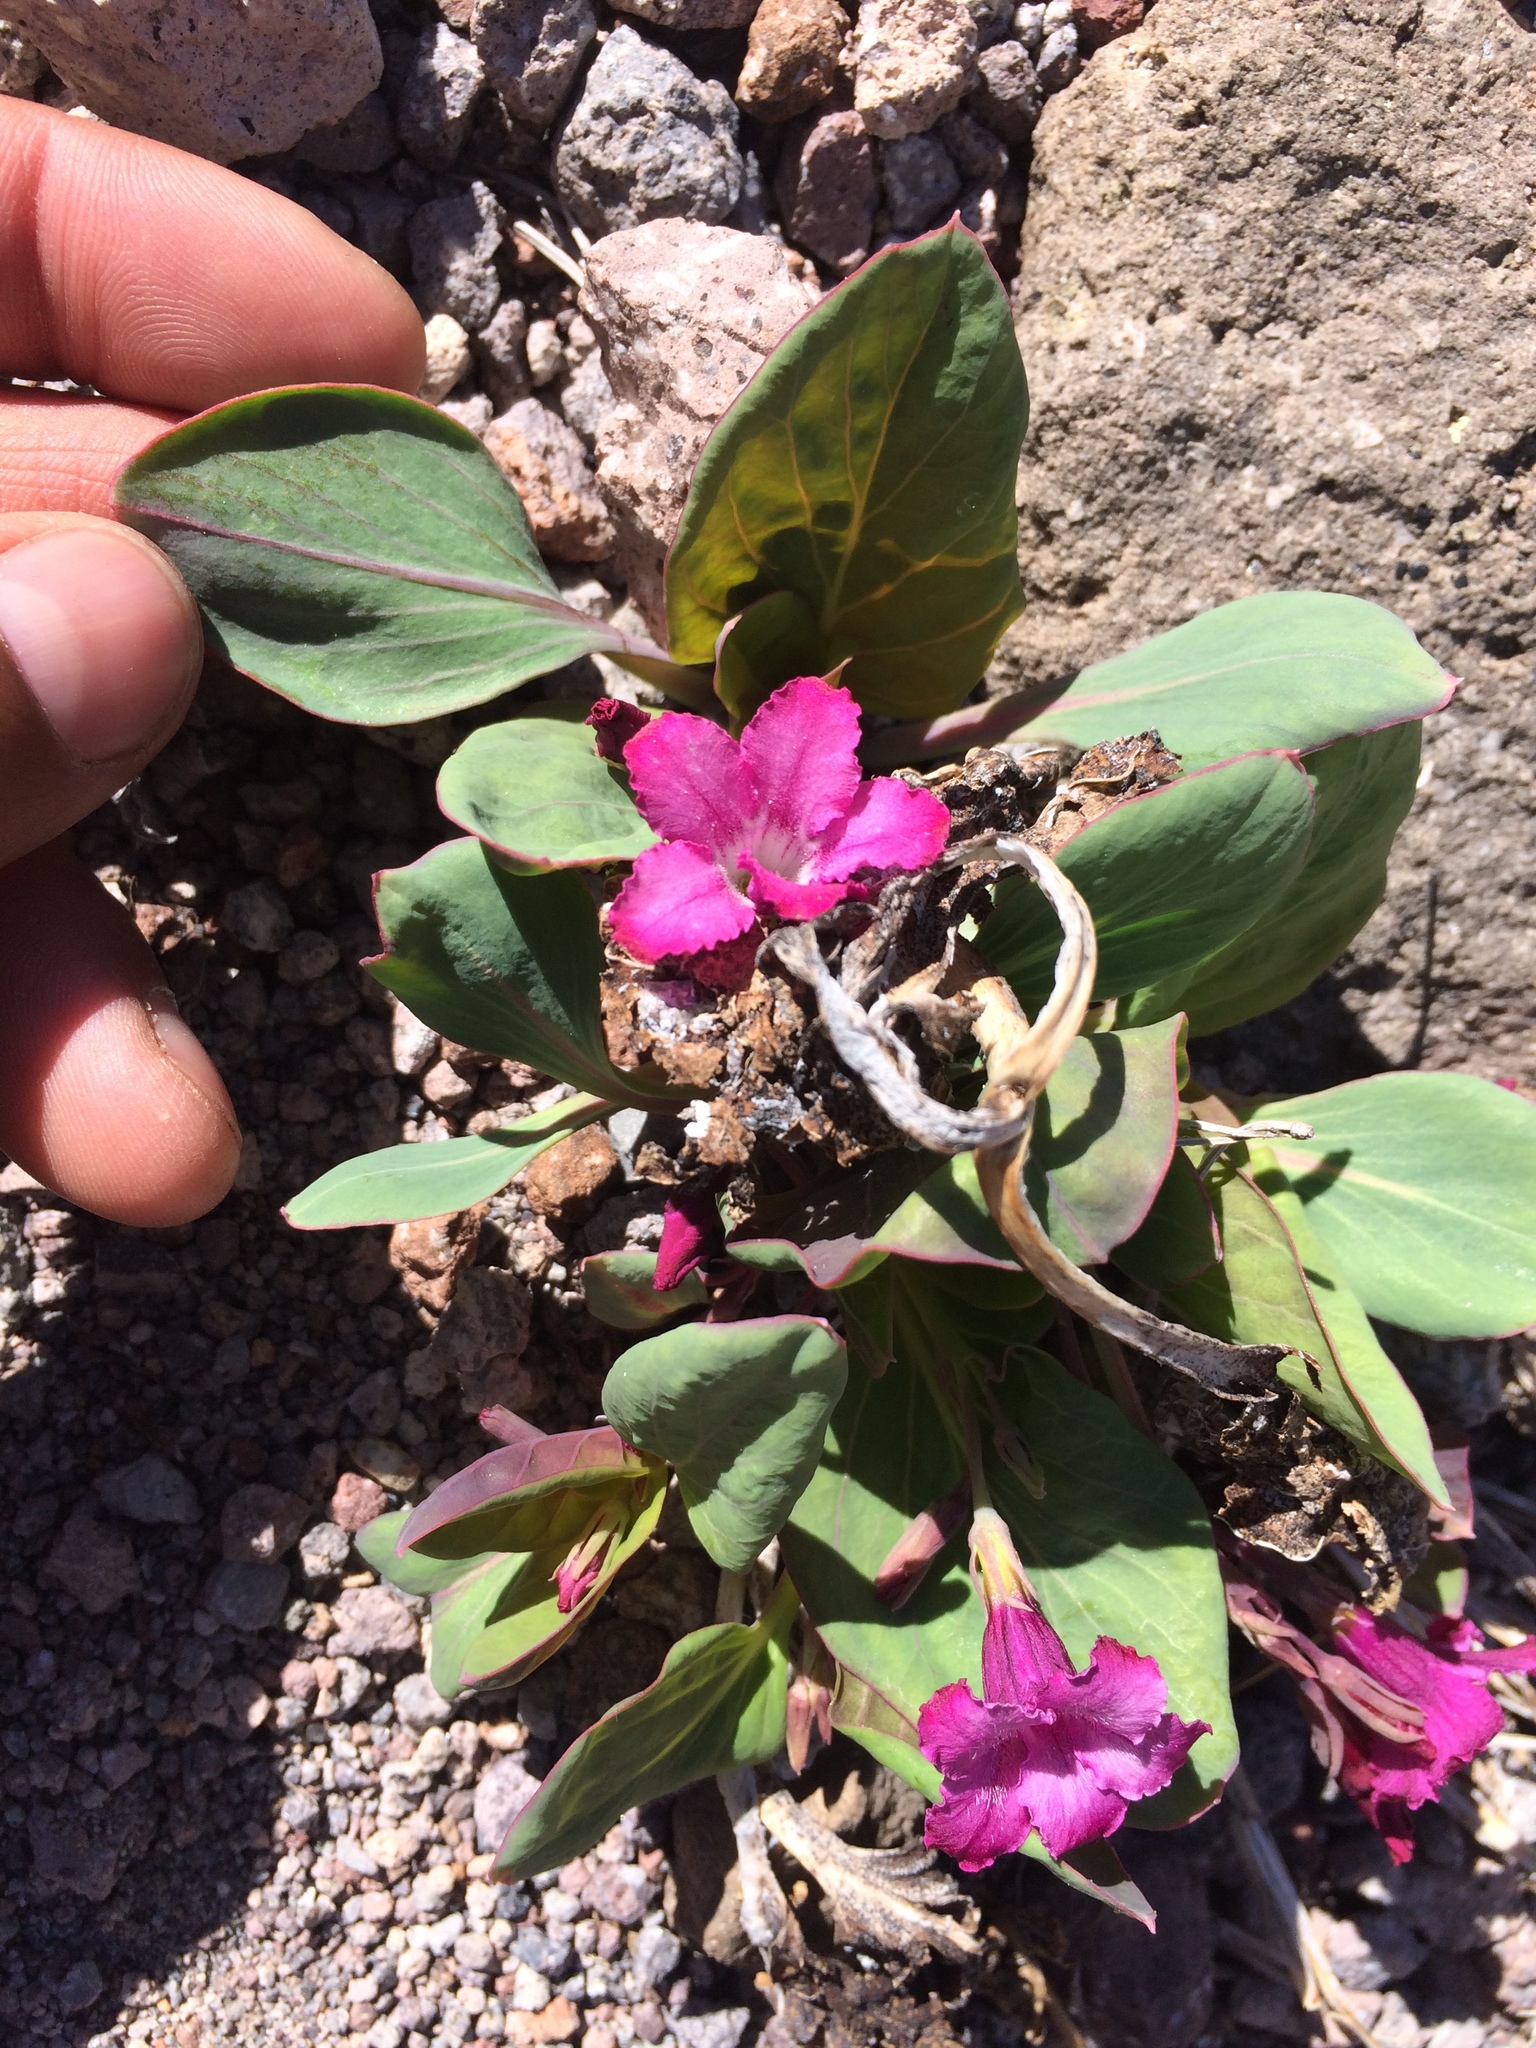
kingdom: Plantae
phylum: Tracheophyta
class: Magnoliopsida
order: Gentianales
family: Apocynaceae
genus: Cycladenia
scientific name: Cycladenia humilis
